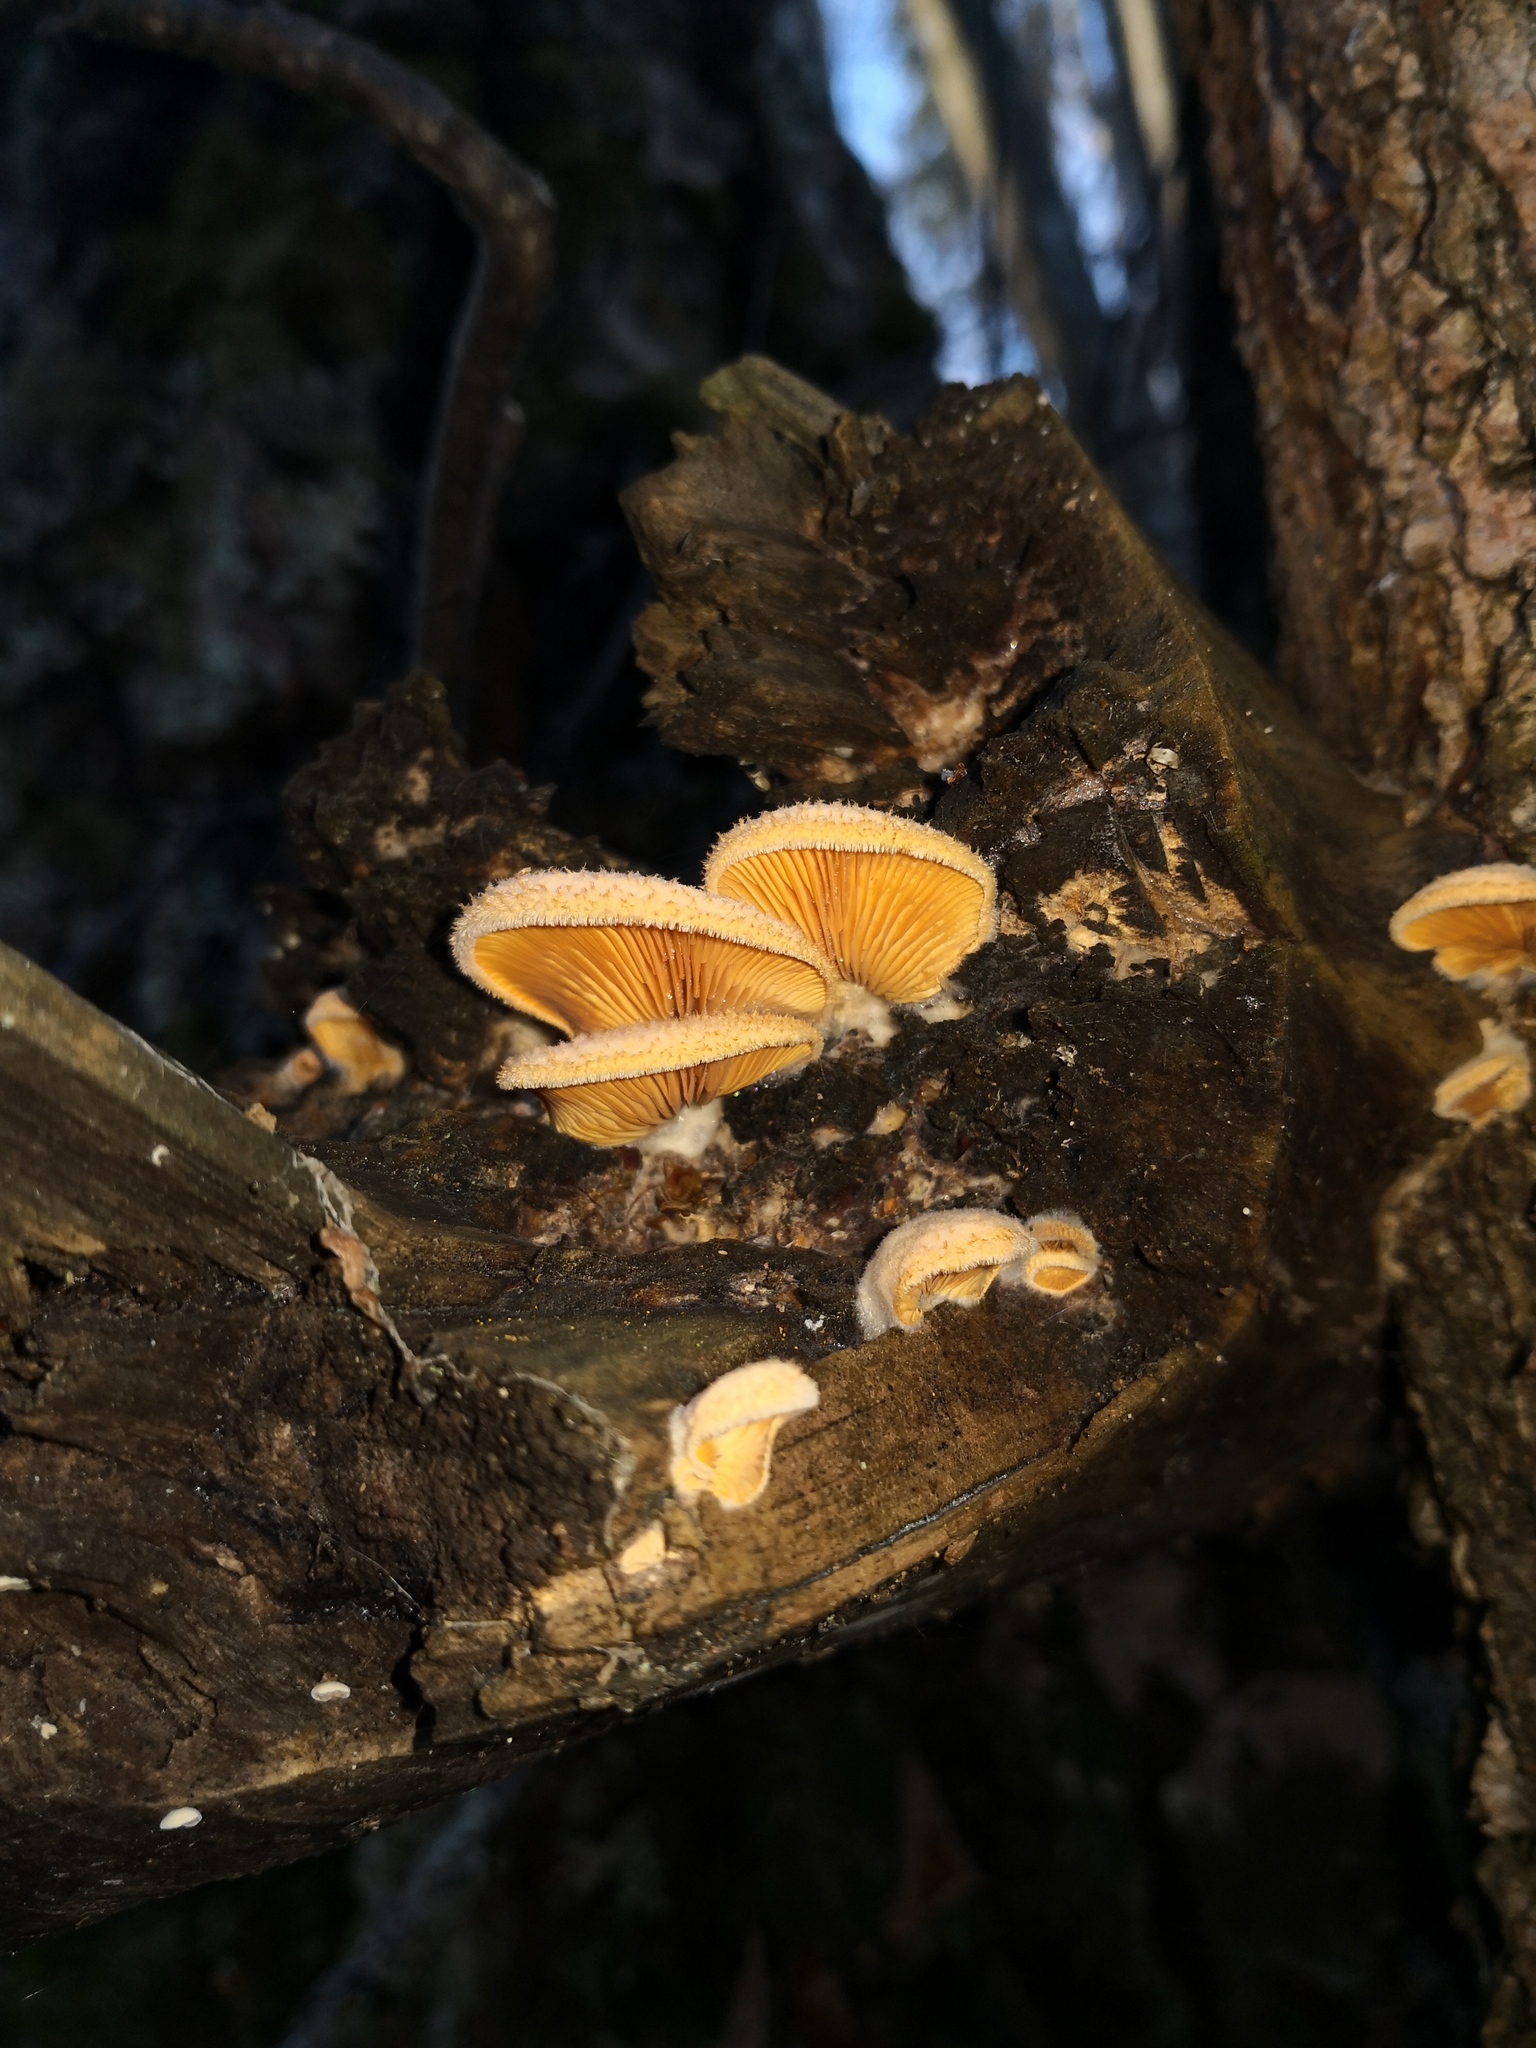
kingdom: Fungi
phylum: Basidiomycota
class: Agaricomycetes
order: Agaricales
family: Phyllotopsidaceae
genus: Phyllotopsis
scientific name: Phyllotopsis nidulans
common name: Orange mock oyster
